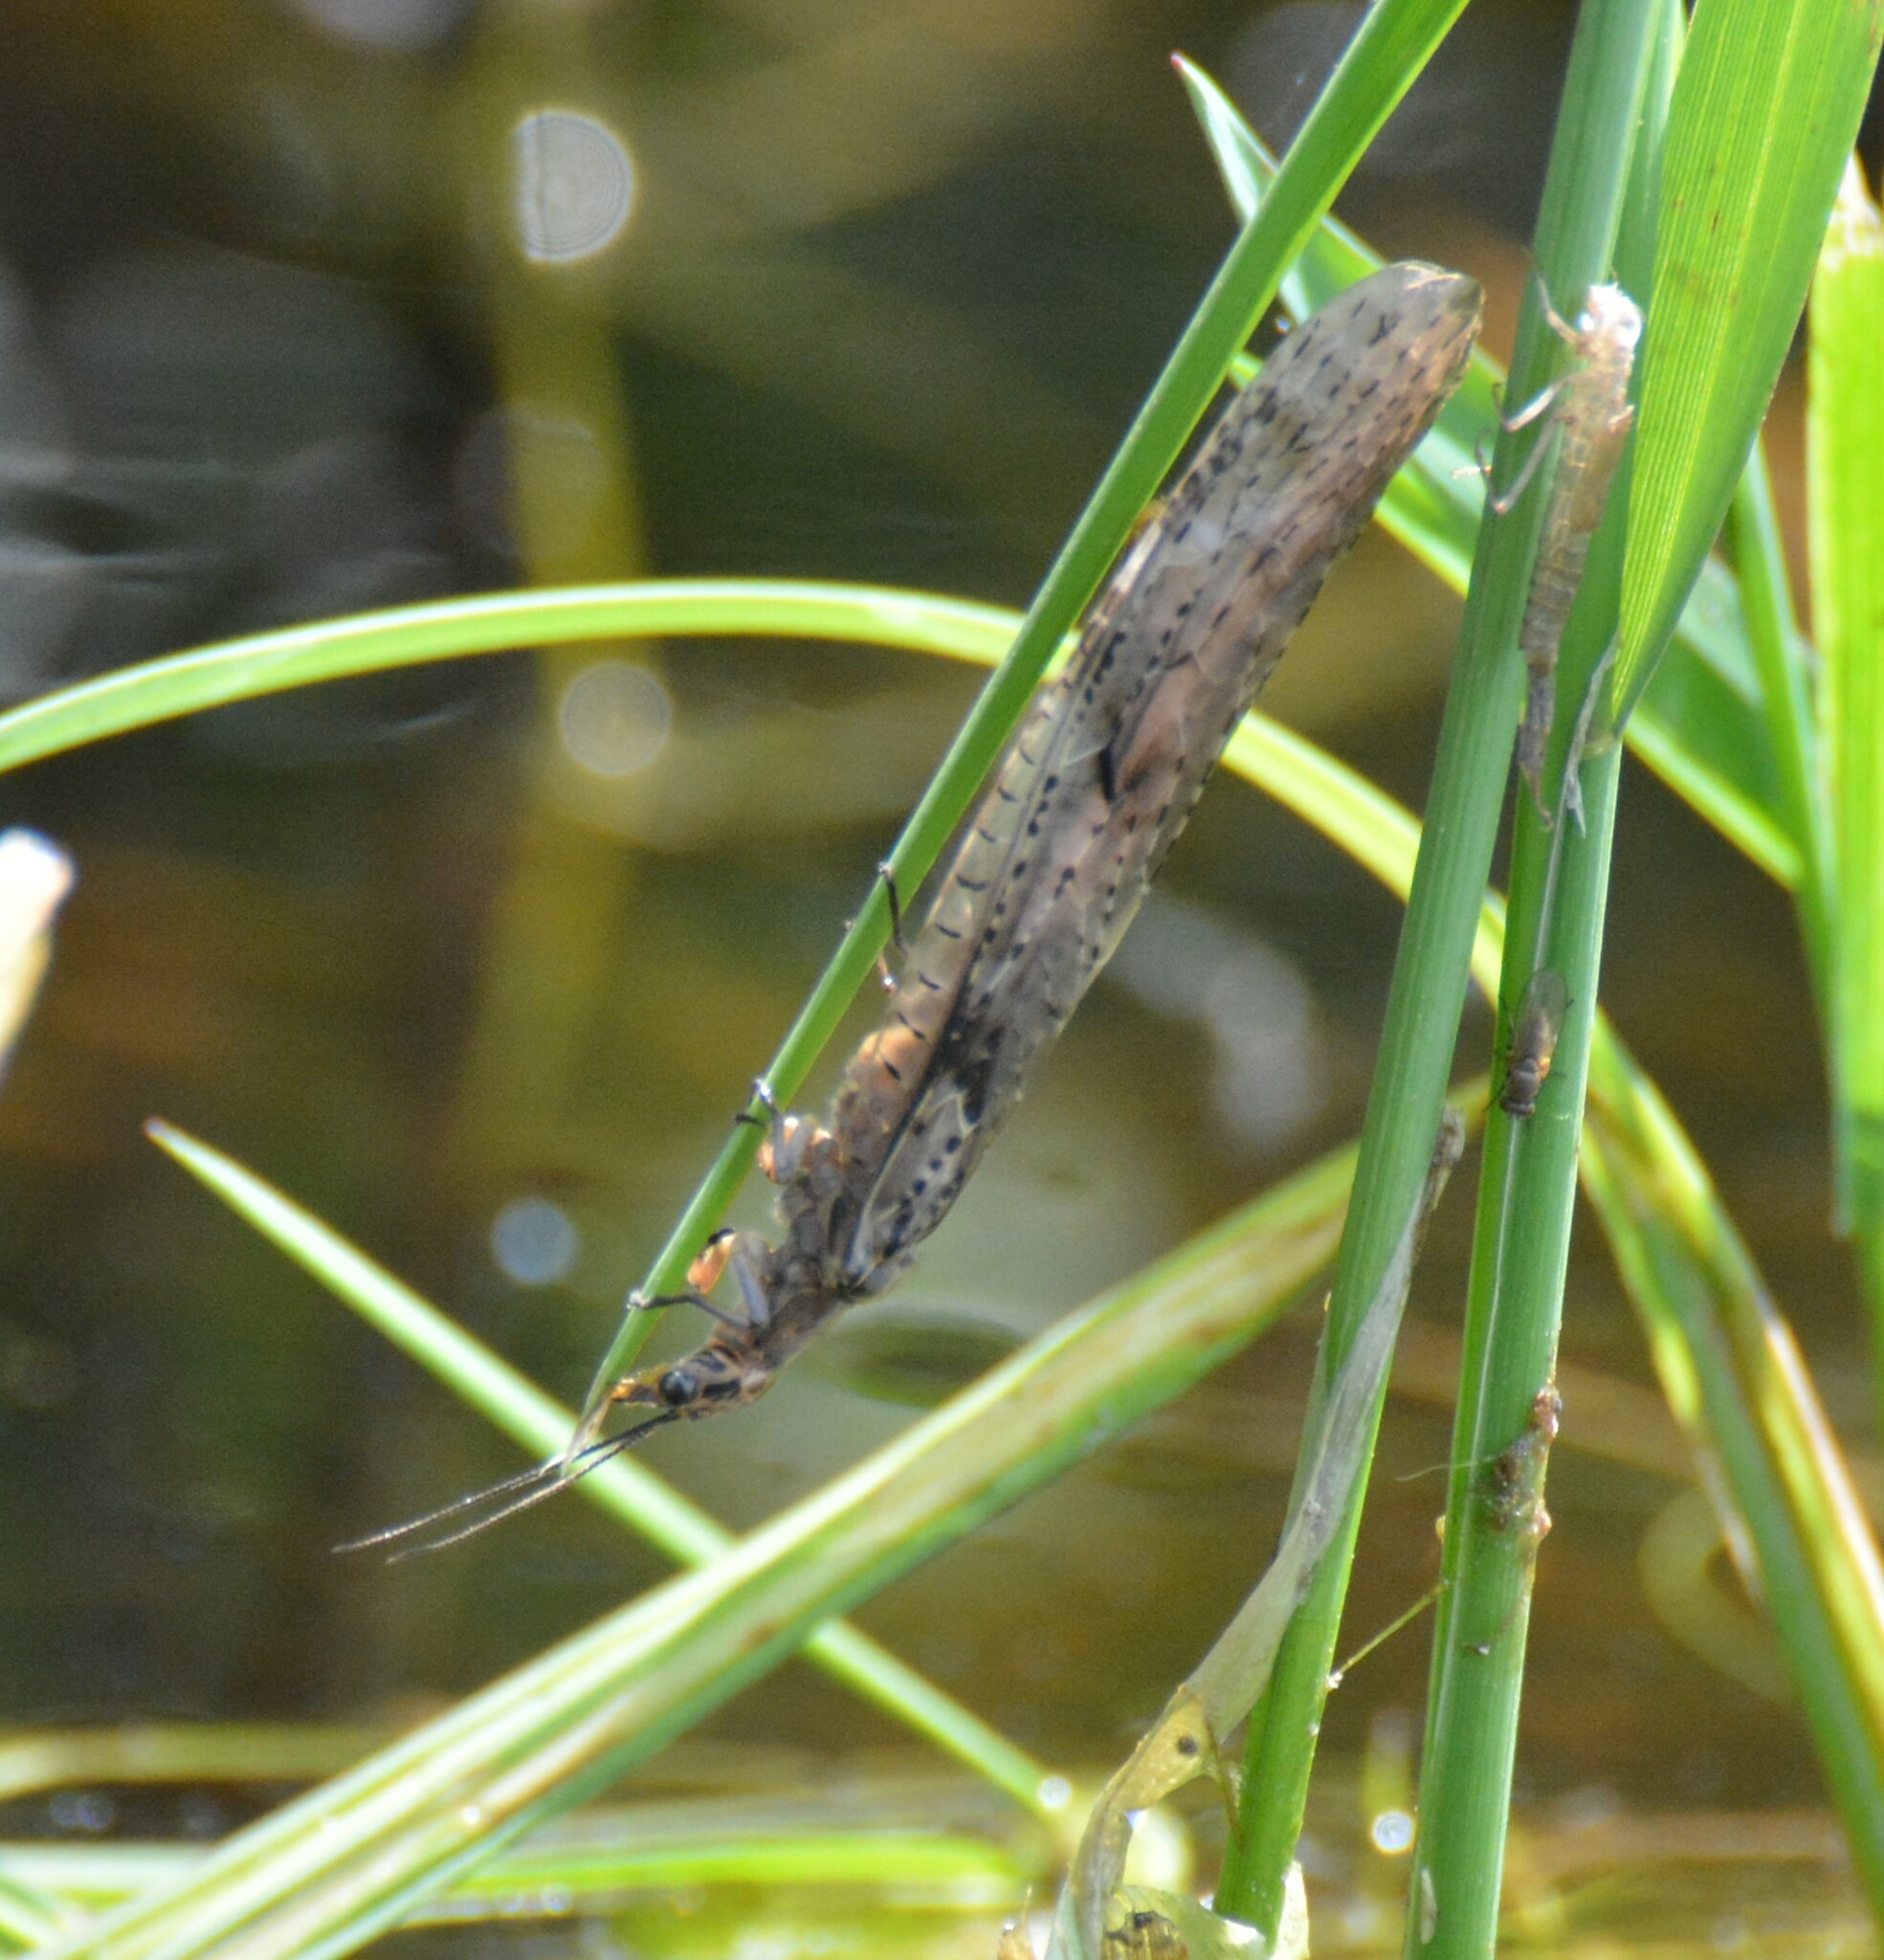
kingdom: Animalia
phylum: Arthropoda
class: Insecta
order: Megaloptera
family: Corydalidae
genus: Chauliodes
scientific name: Chauliodes rastricornis
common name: Spring fishfly
